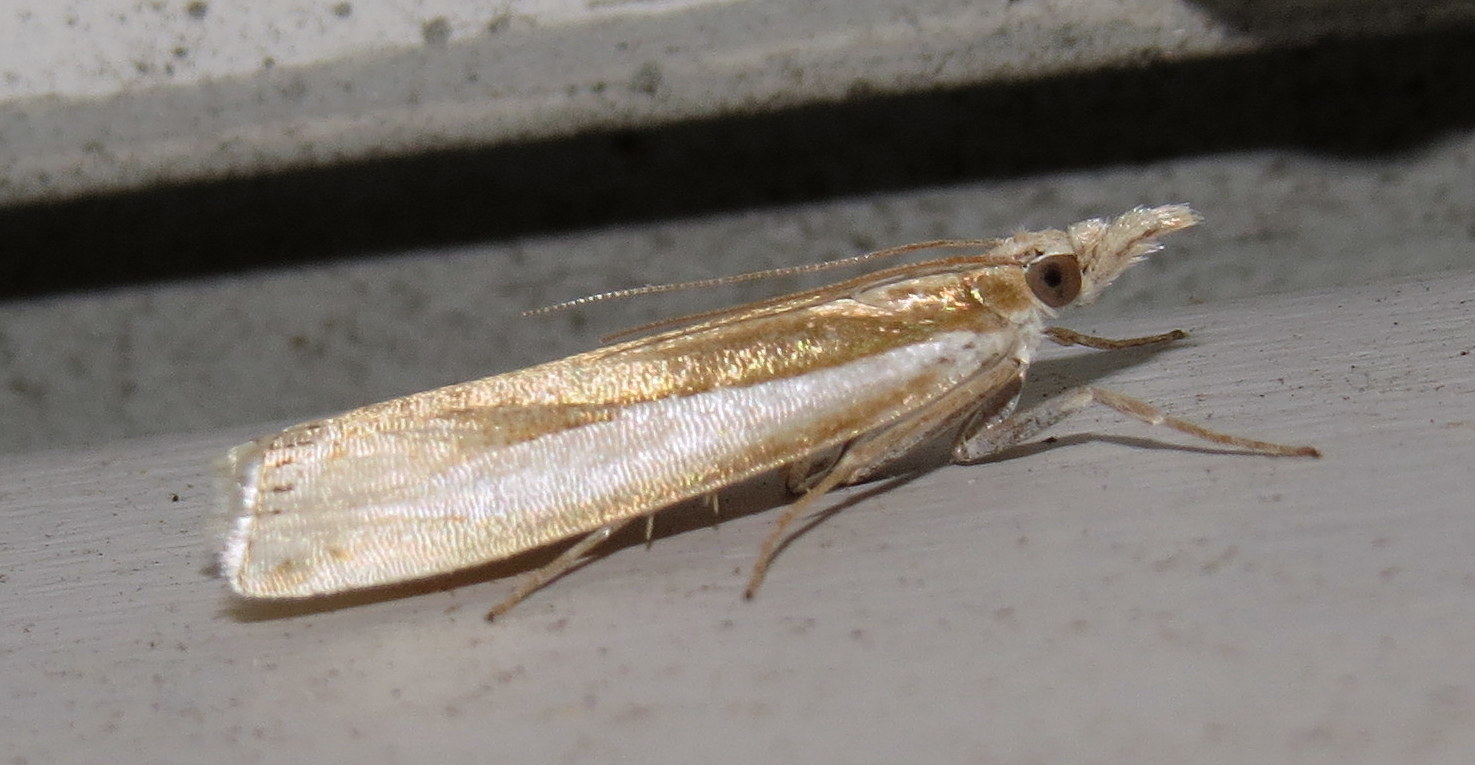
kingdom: Animalia
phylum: Arthropoda
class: Insecta
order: Lepidoptera
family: Crambidae
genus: Crambus
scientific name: Crambus praefectellus
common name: Common grass-veneer
